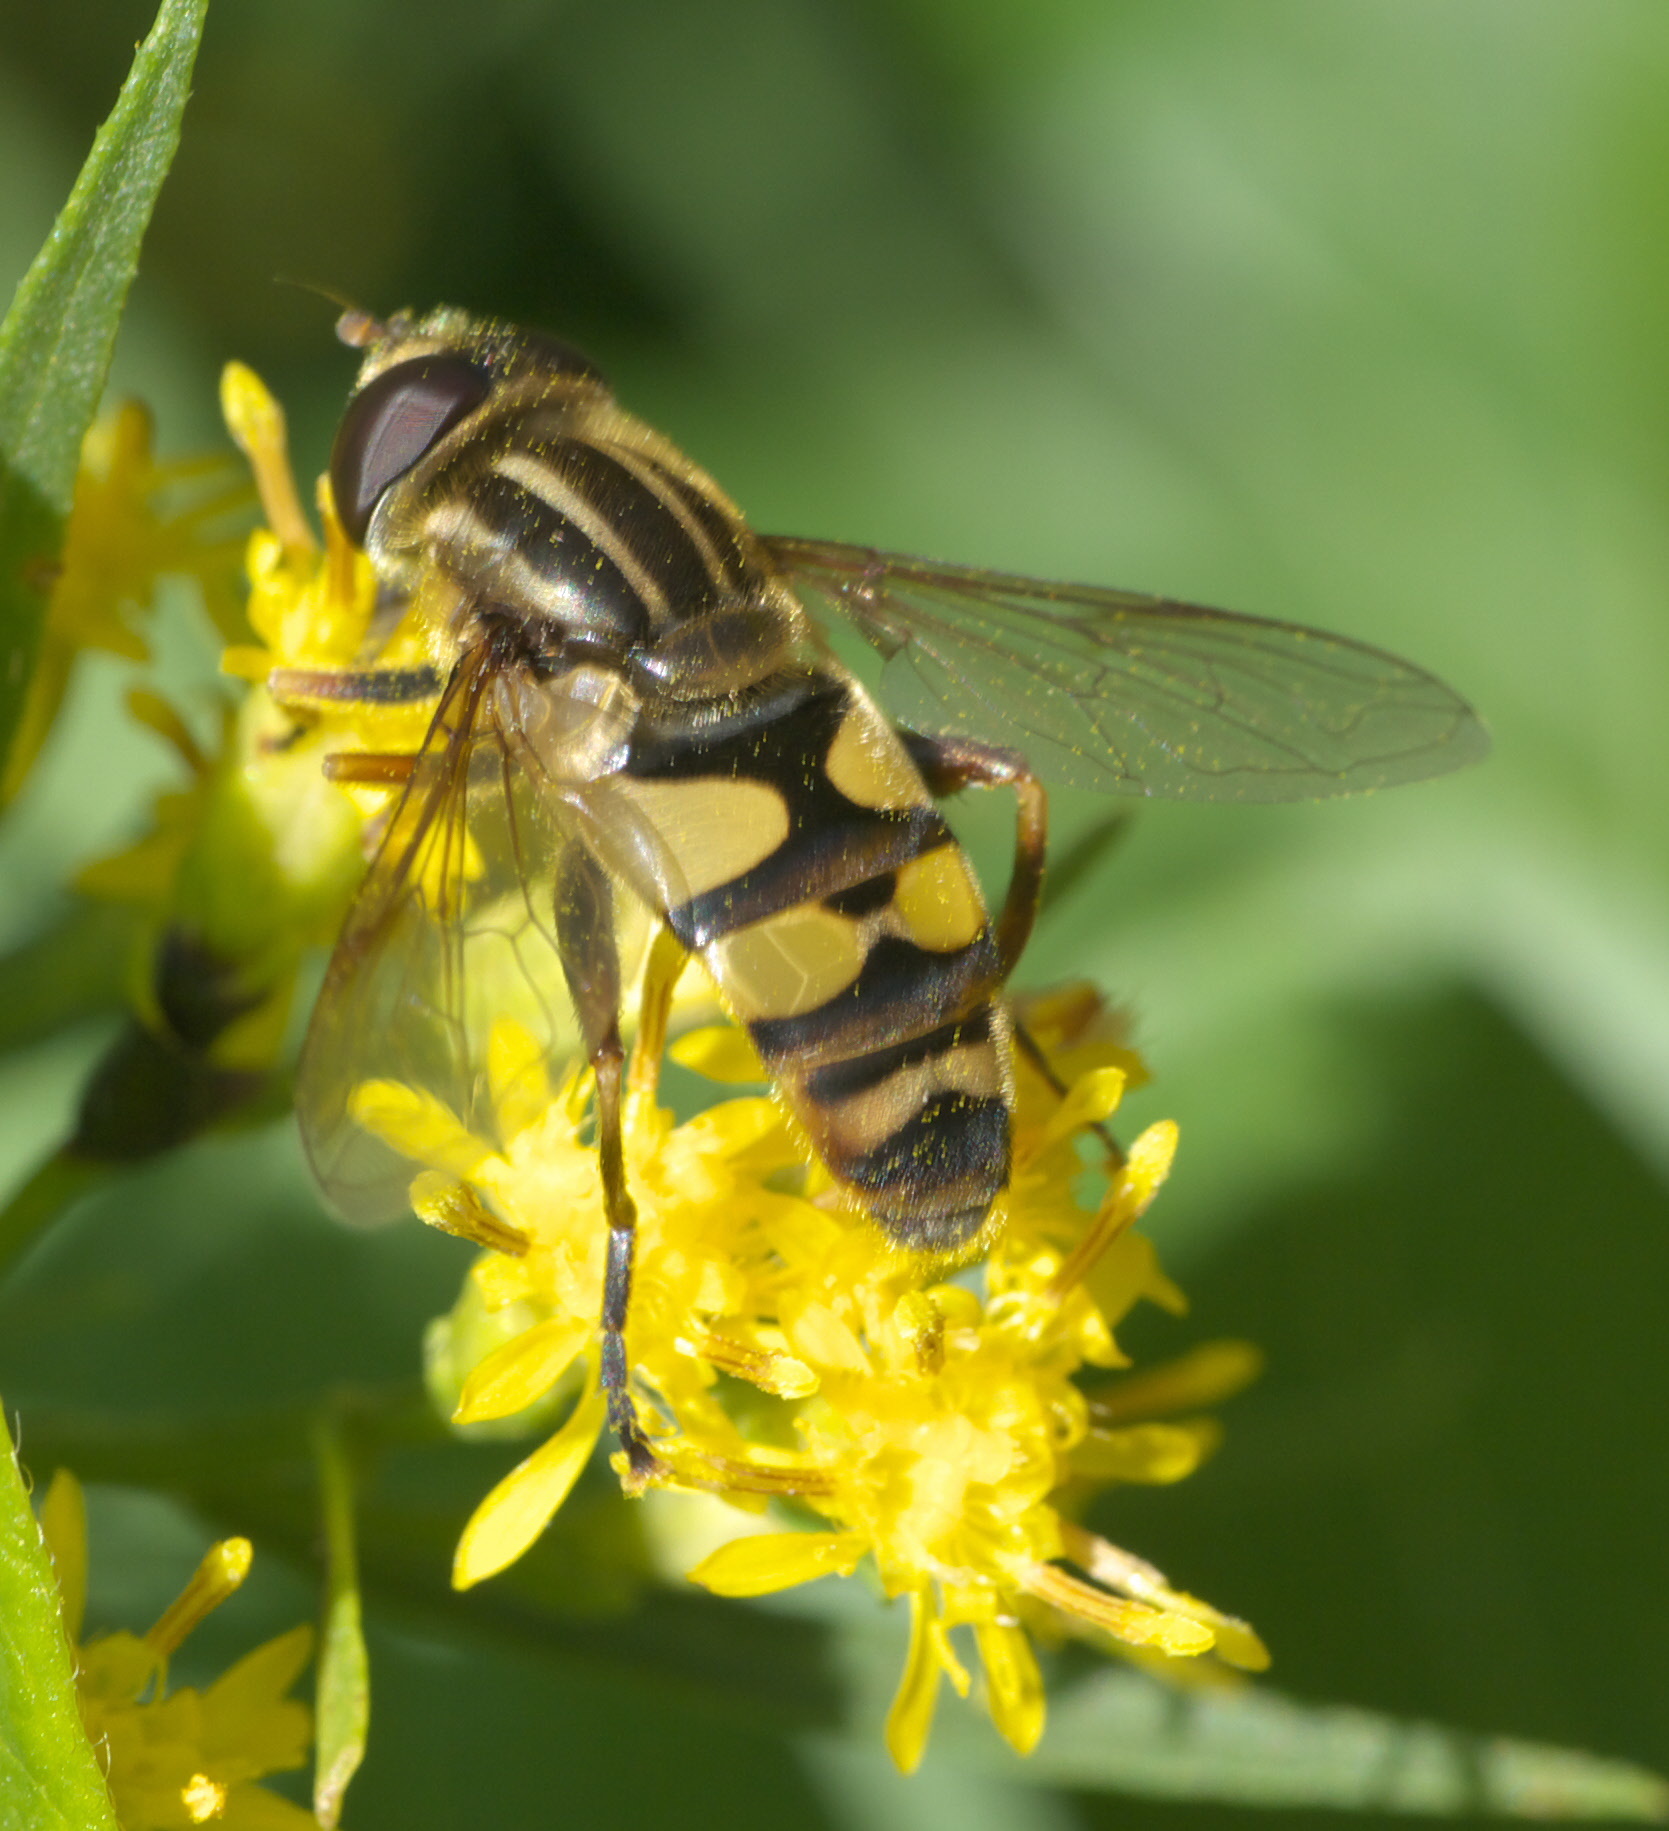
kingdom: Animalia
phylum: Arthropoda
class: Insecta
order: Diptera
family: Syrphidae
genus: Helophilus
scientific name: Helophilus fasciatus
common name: Narrow-headed marsh fly
